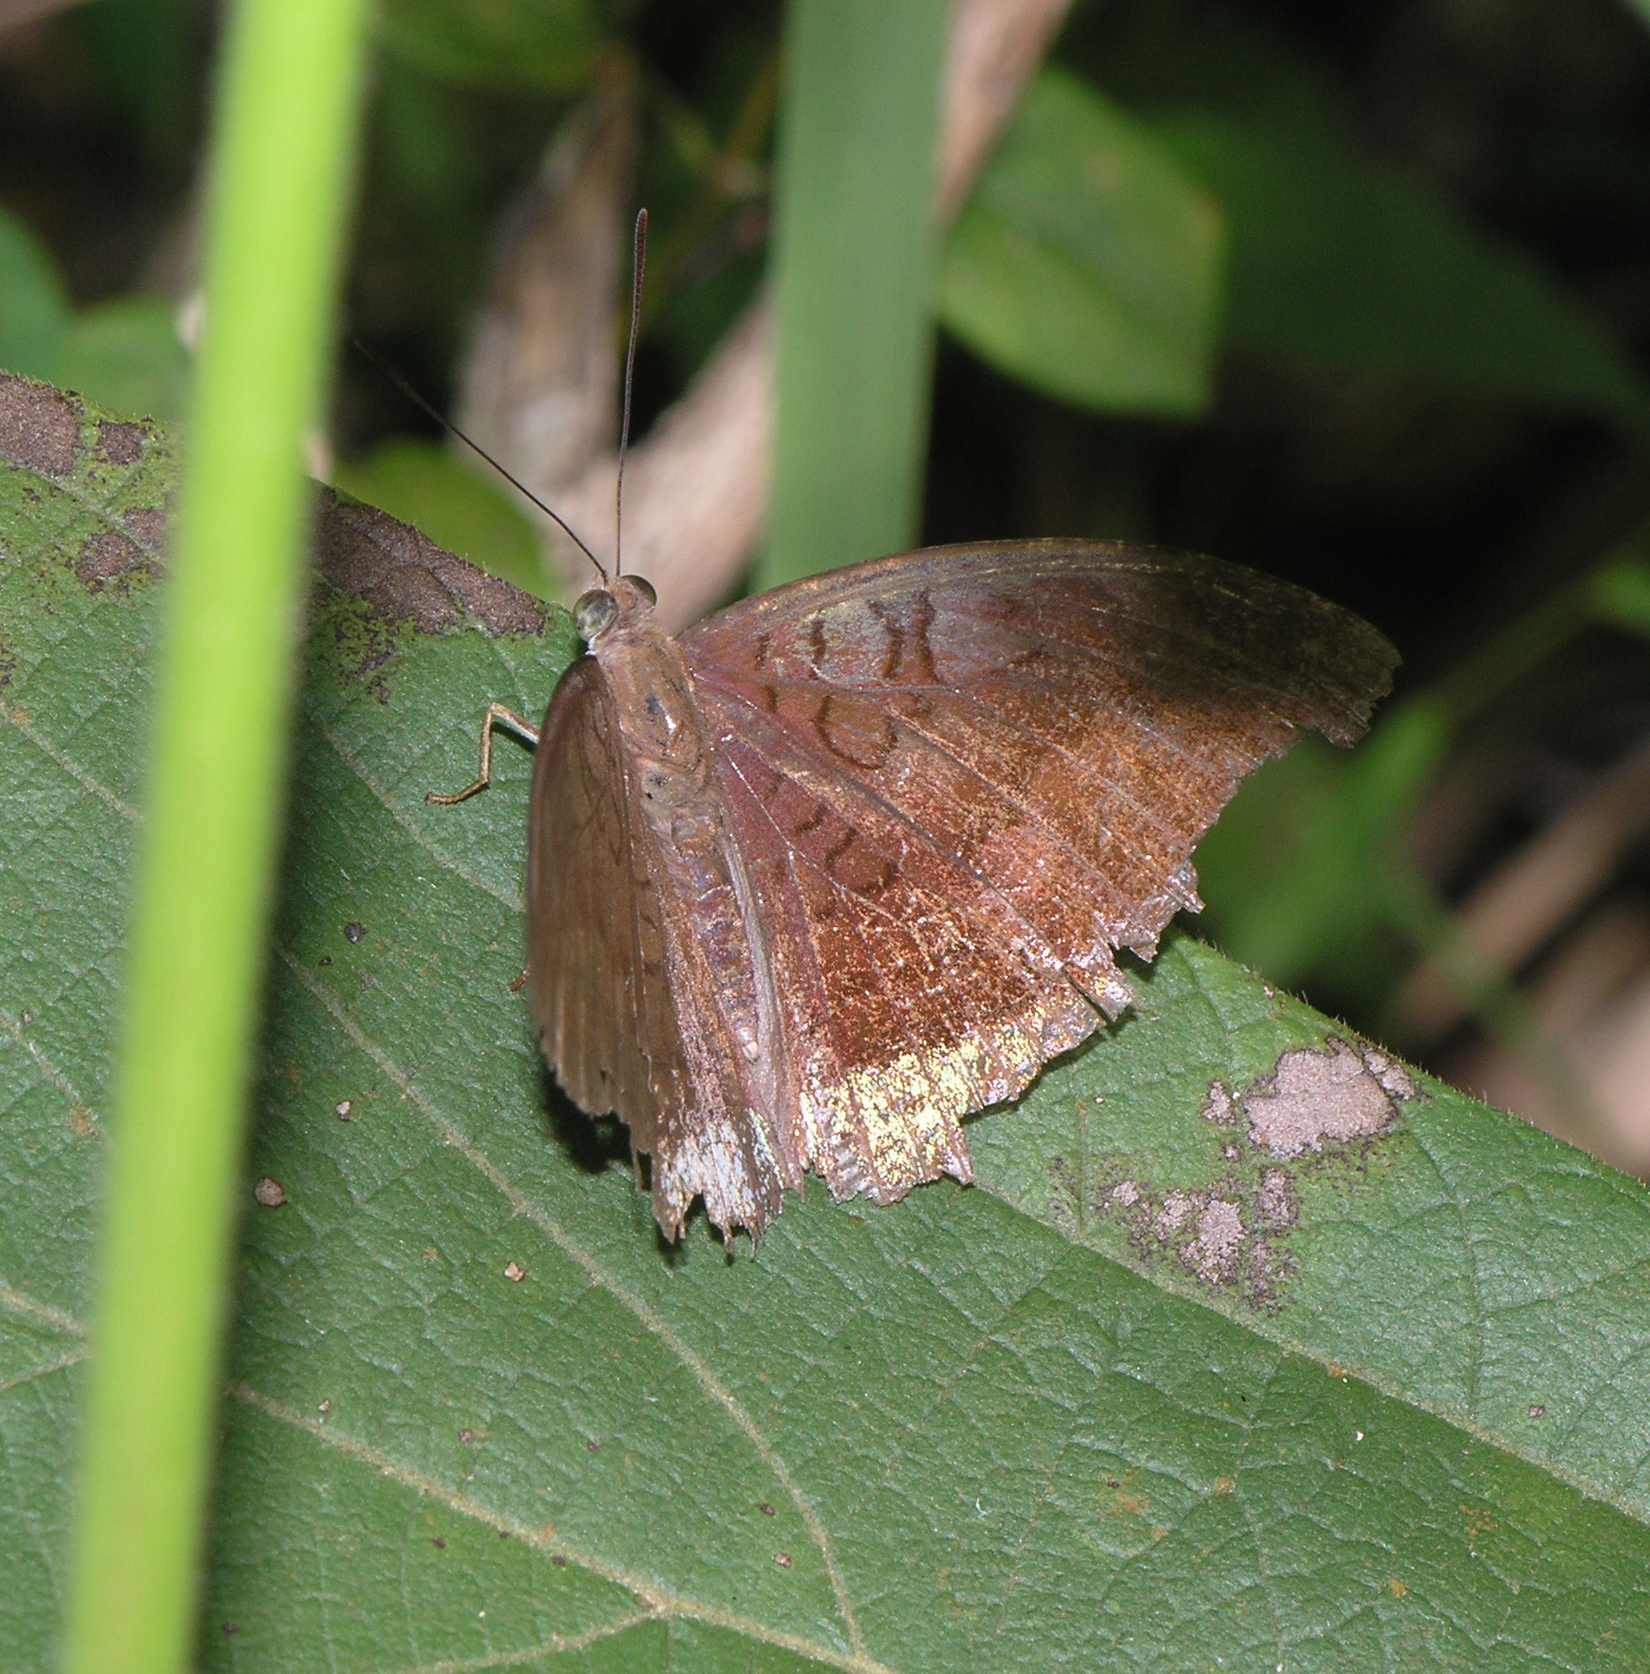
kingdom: Animalia
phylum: Arthropoda
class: Insecta
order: Lepidoptera
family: Nymphalidae
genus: Tanaecia
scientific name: Tanaecia julii
